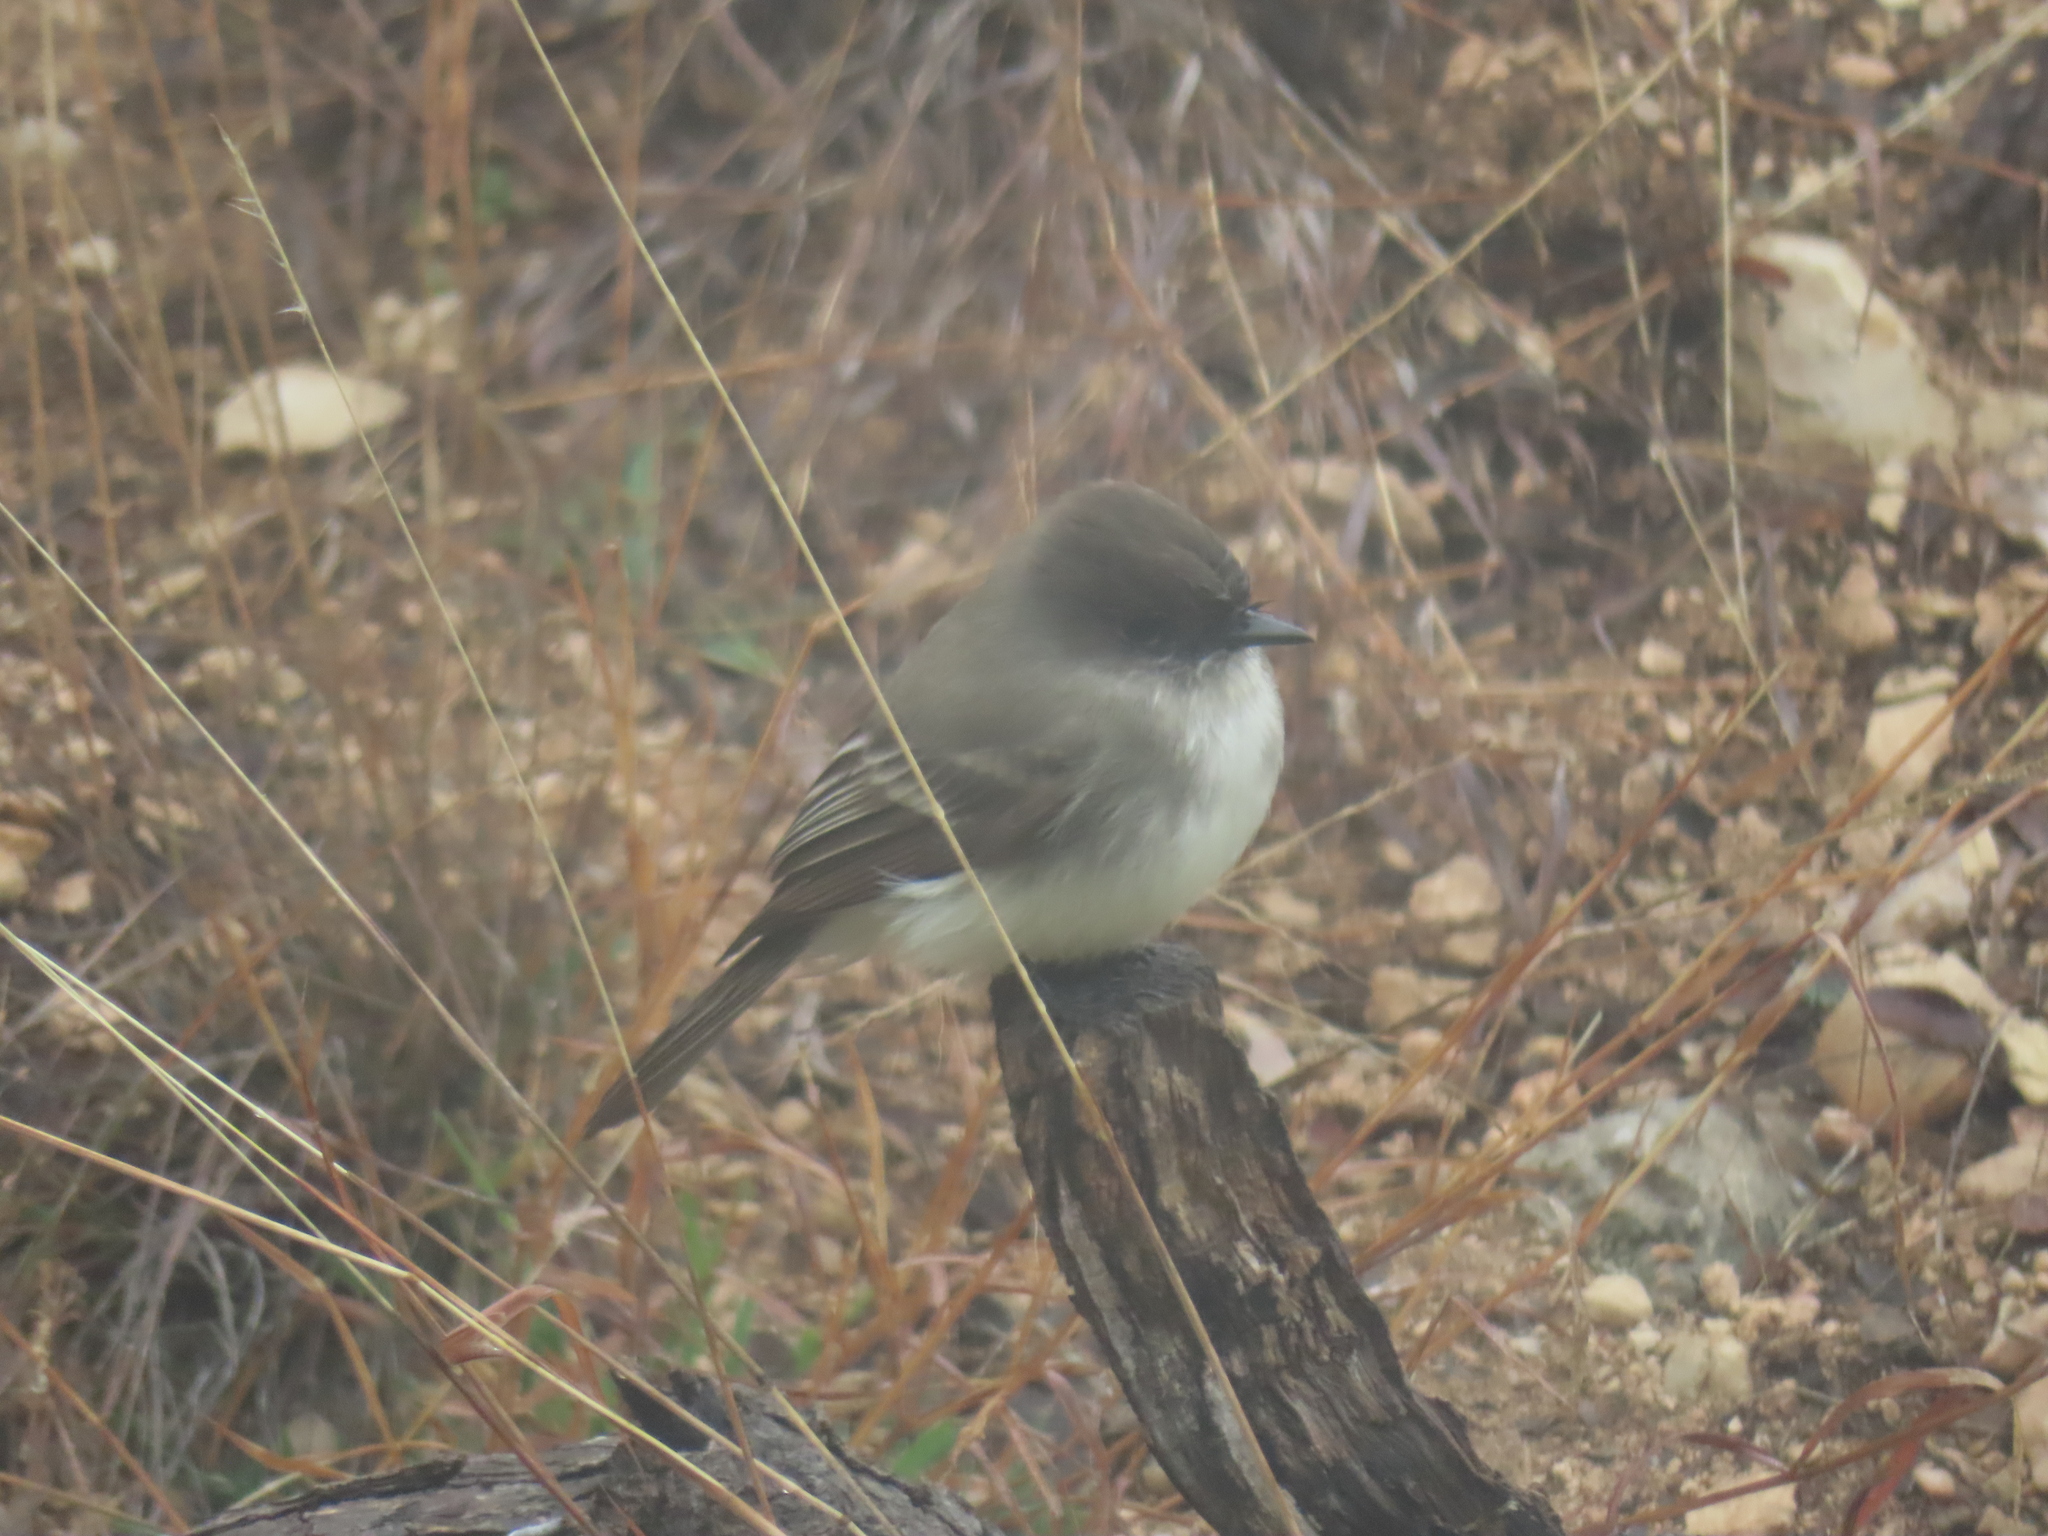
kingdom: Animalia
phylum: Chordata
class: Aves
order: Passeriformes
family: Tyrannidae
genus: Sayornis
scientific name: Sayornis phoebe
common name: Eastern phoebe
